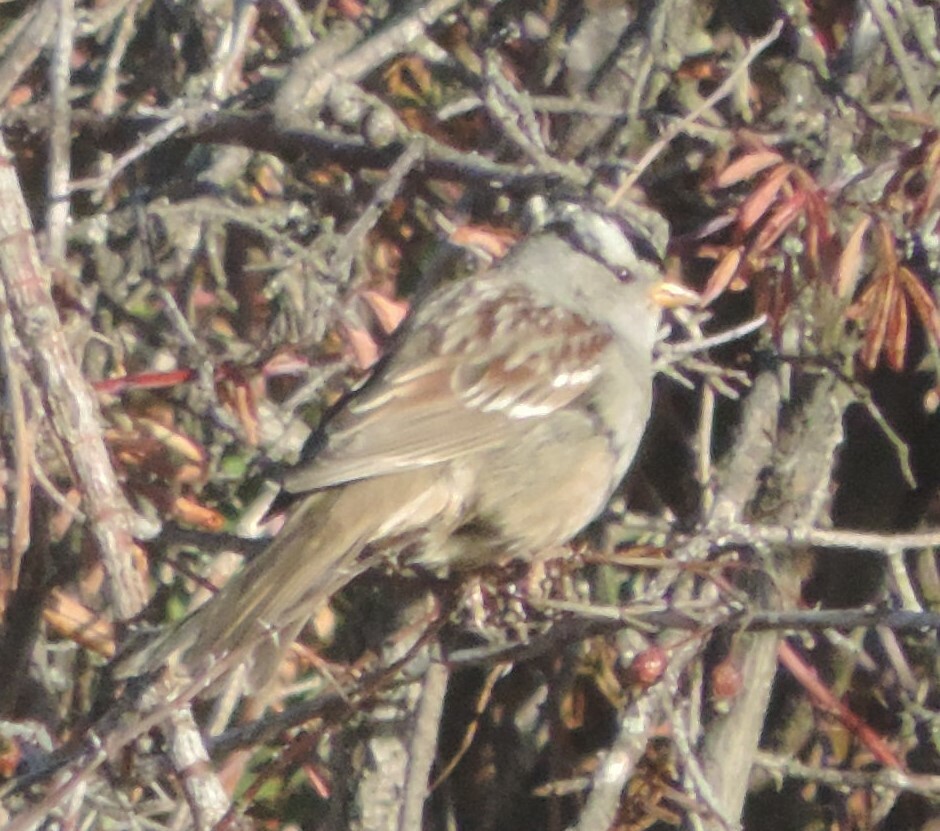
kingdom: Animalia
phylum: Chordata
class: Aves
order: Passeriformes
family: Passerellidae
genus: Zonotrichia
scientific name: Zonotrichia leucophrys
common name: White-crowned sparrow
